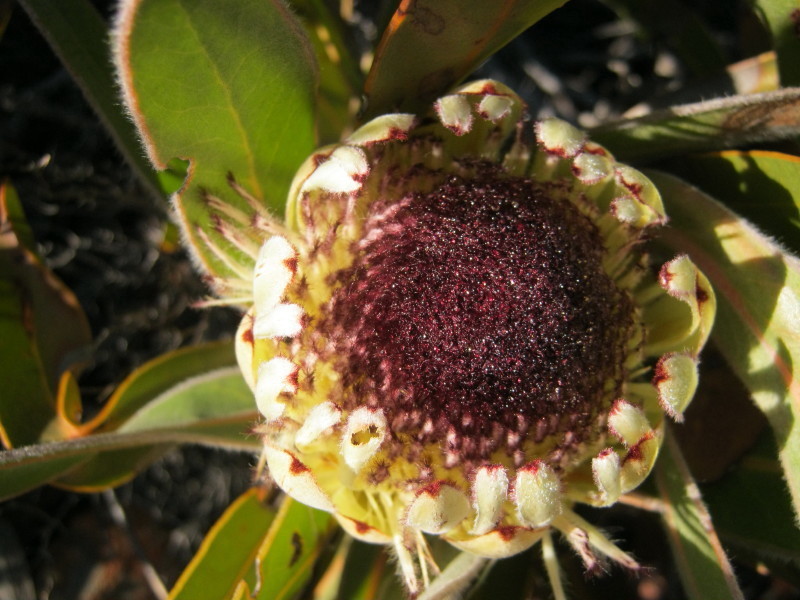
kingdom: Plantae
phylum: Tracheophyta
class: Magnoliopsida
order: Proteales
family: Proteaceae
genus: Protea
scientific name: Protea lorifolia
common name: Strap-leaved protea
